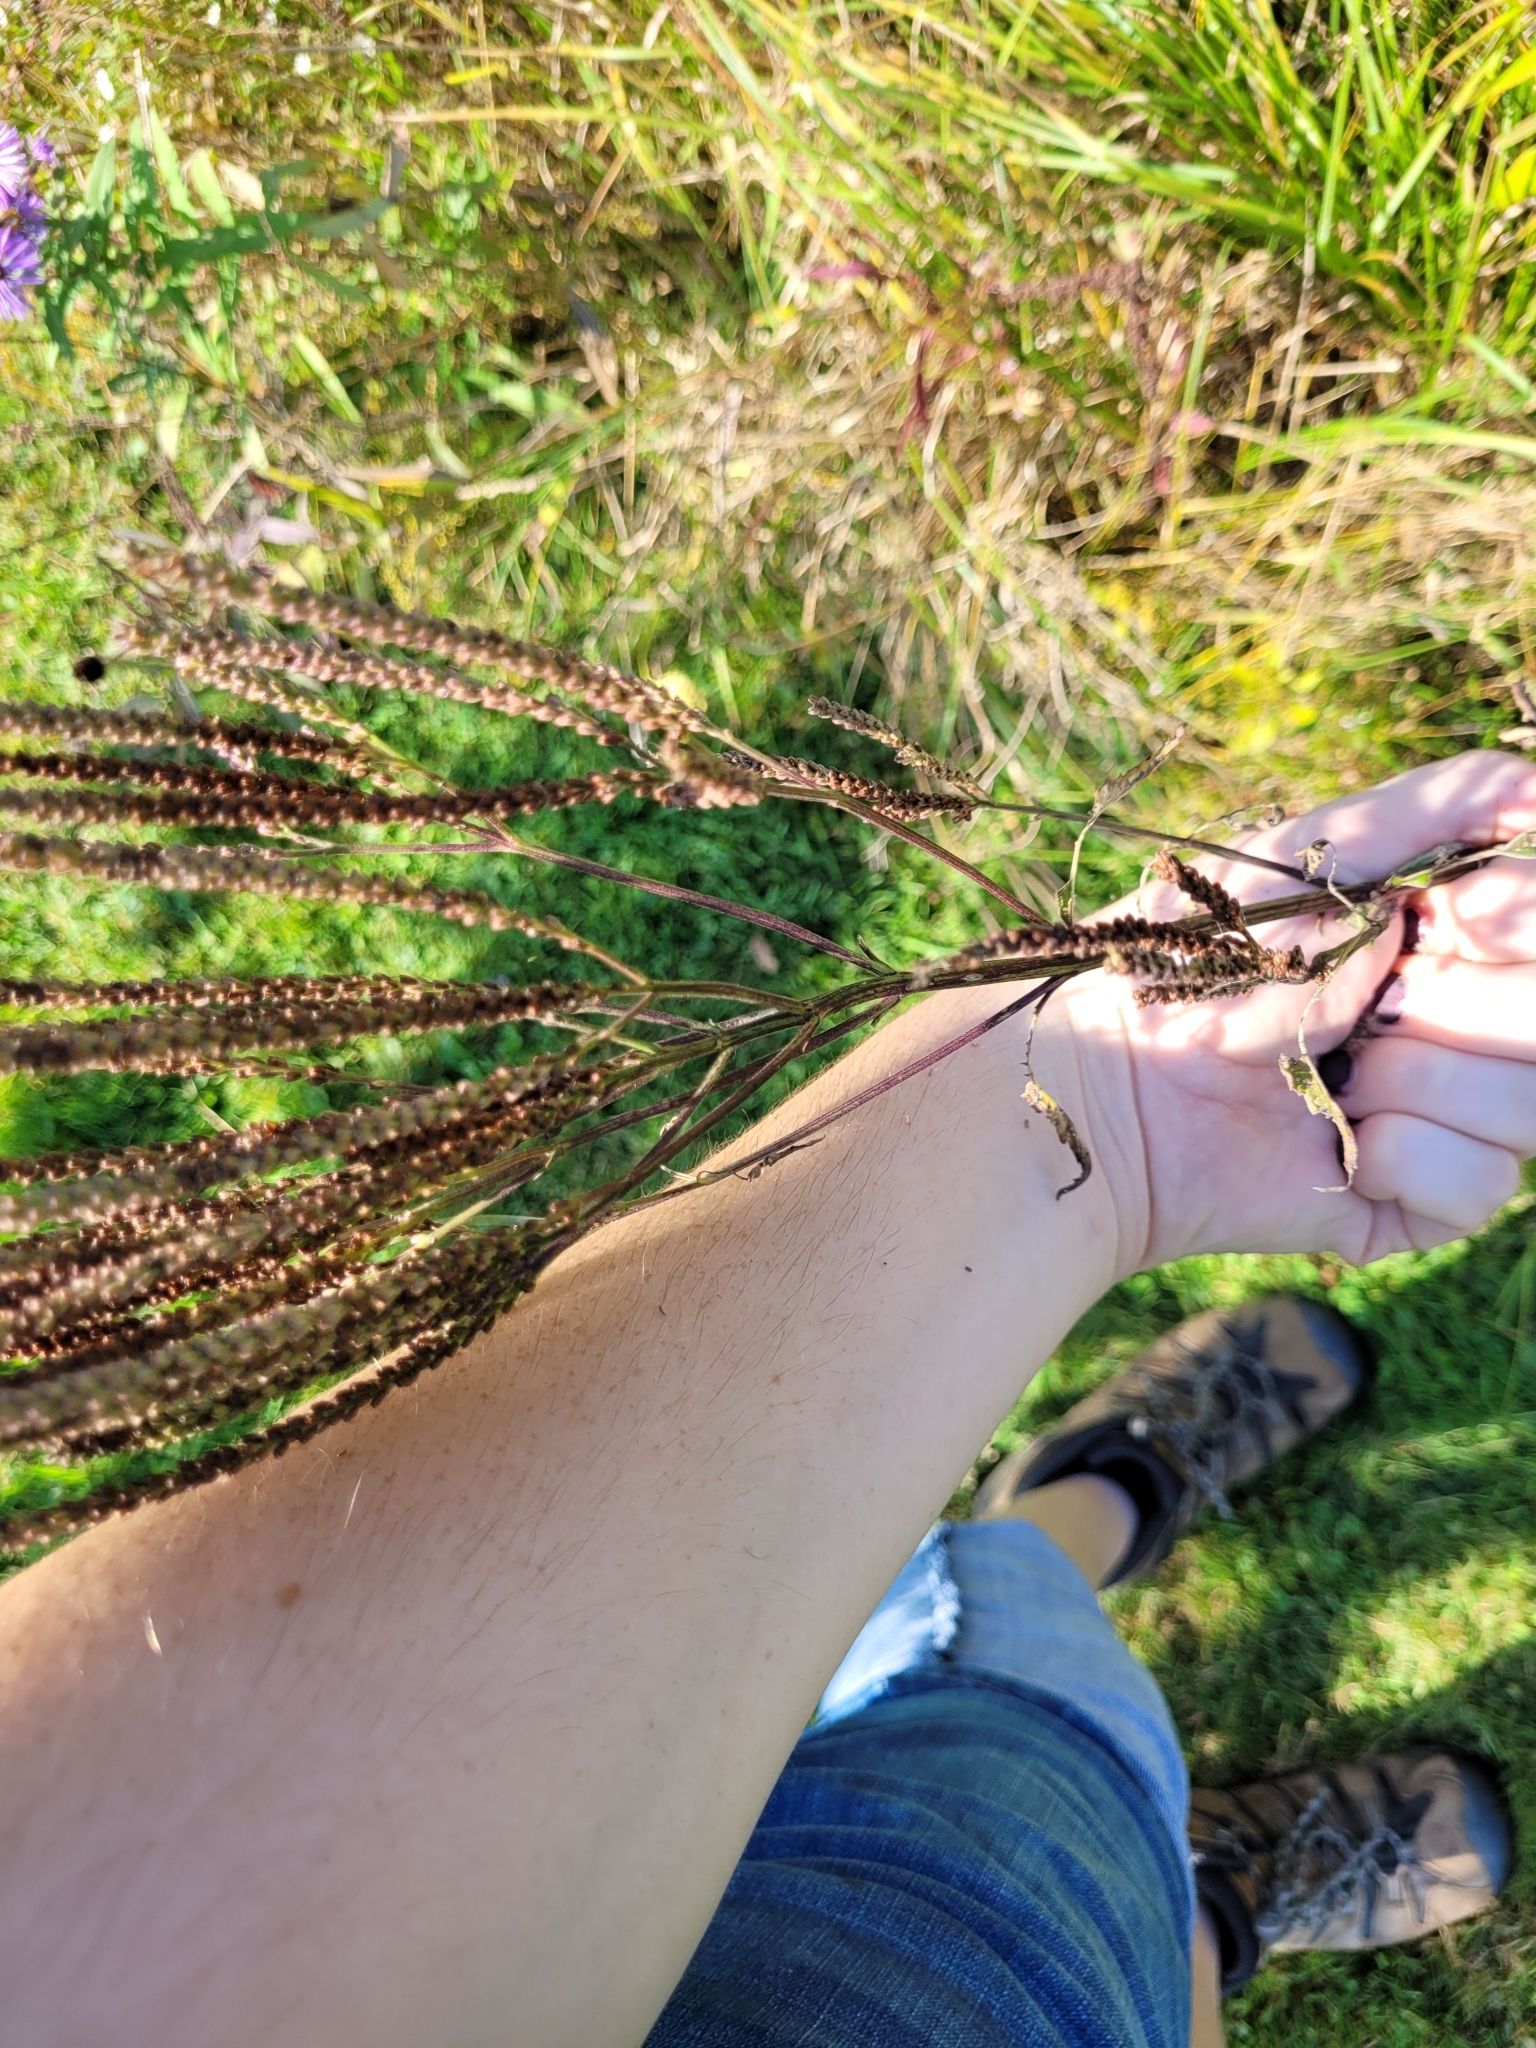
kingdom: Plantae
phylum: Tracheophyta
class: Magnoliopsida
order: Lamiales
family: Verbenaceae
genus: Verbena
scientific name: Verbena hastata
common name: American blue vervain
